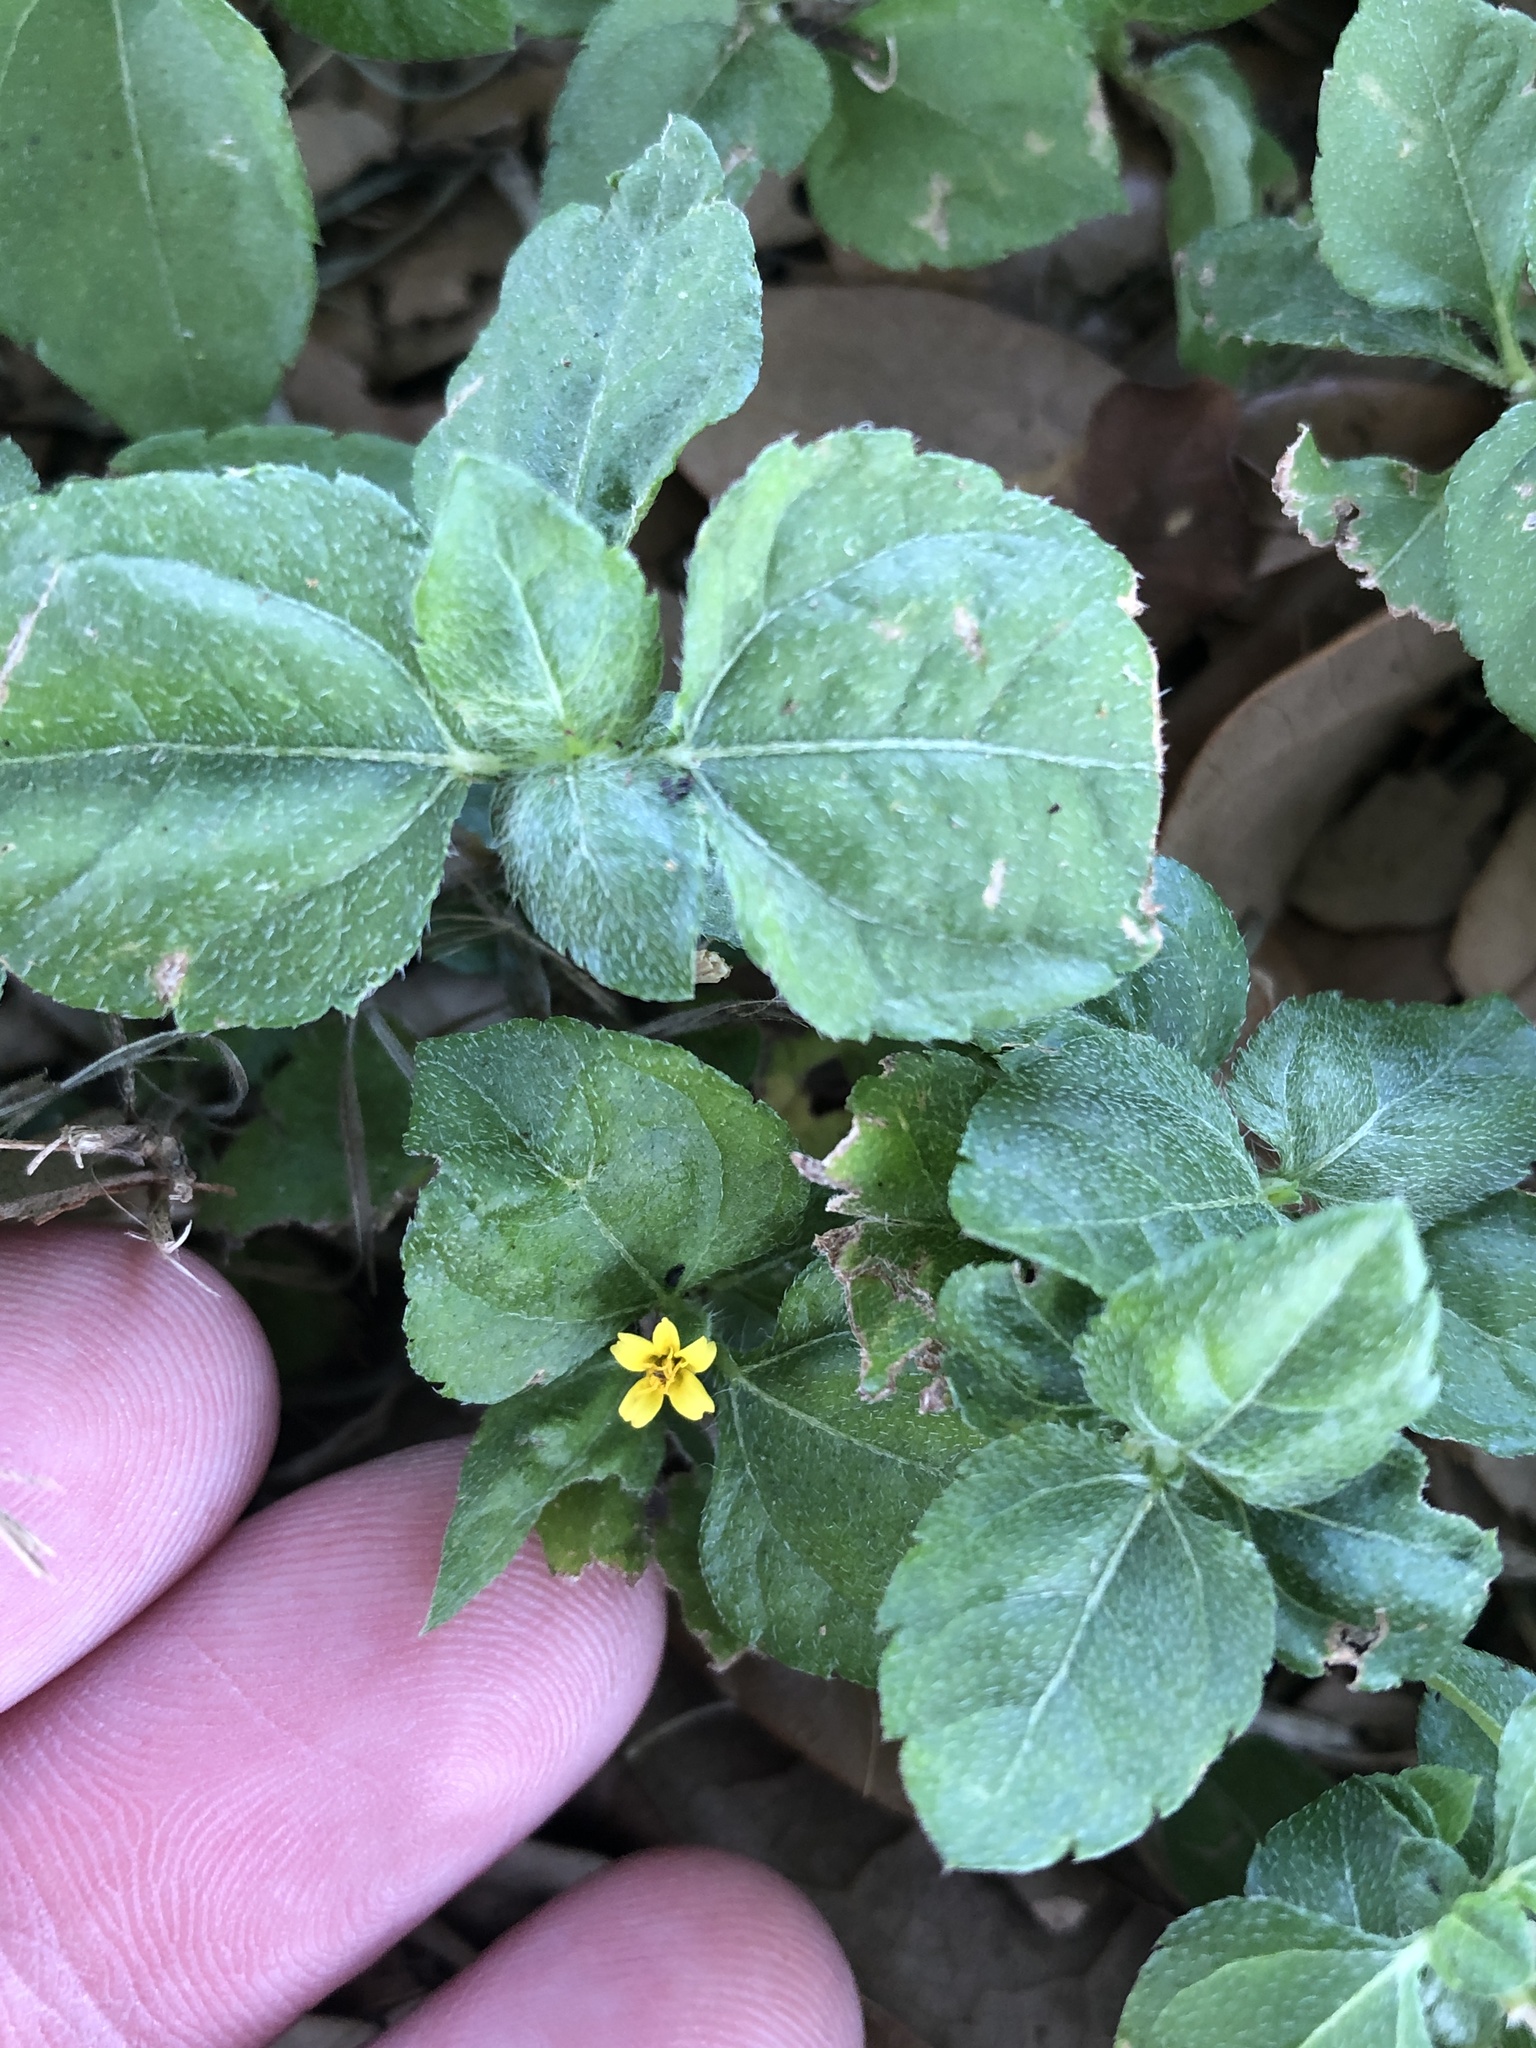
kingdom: Plantae
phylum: Tracheophyta
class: Magnoliopsida
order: Asterales
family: Asteraceae
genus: Calyptocarpus
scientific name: Calyptocarpus vialis
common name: Straggler daisy
